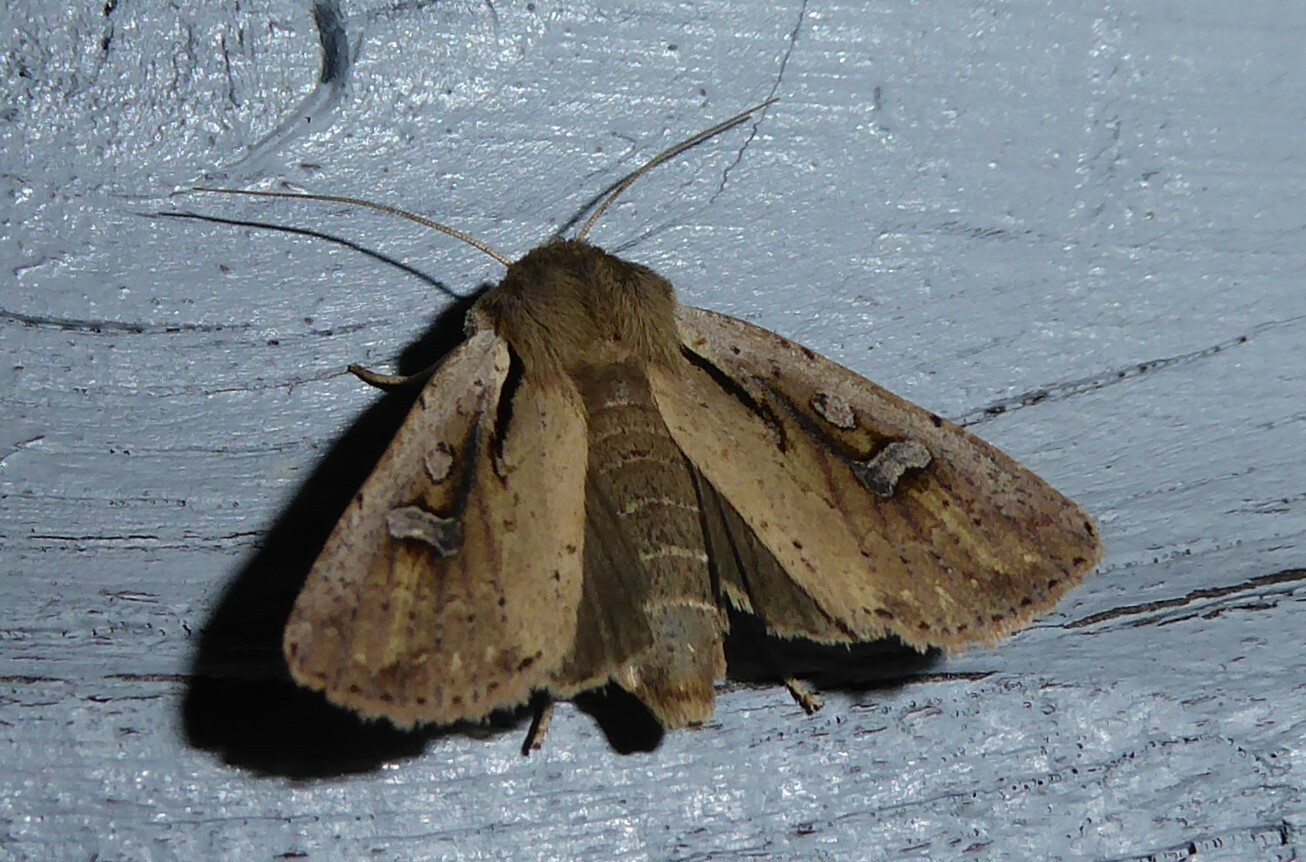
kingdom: Animalia
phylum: Arthropoda
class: Insecta
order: Lepidoptera
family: Noctuidae
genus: Ichneutica
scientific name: Ichneutica atristriga
